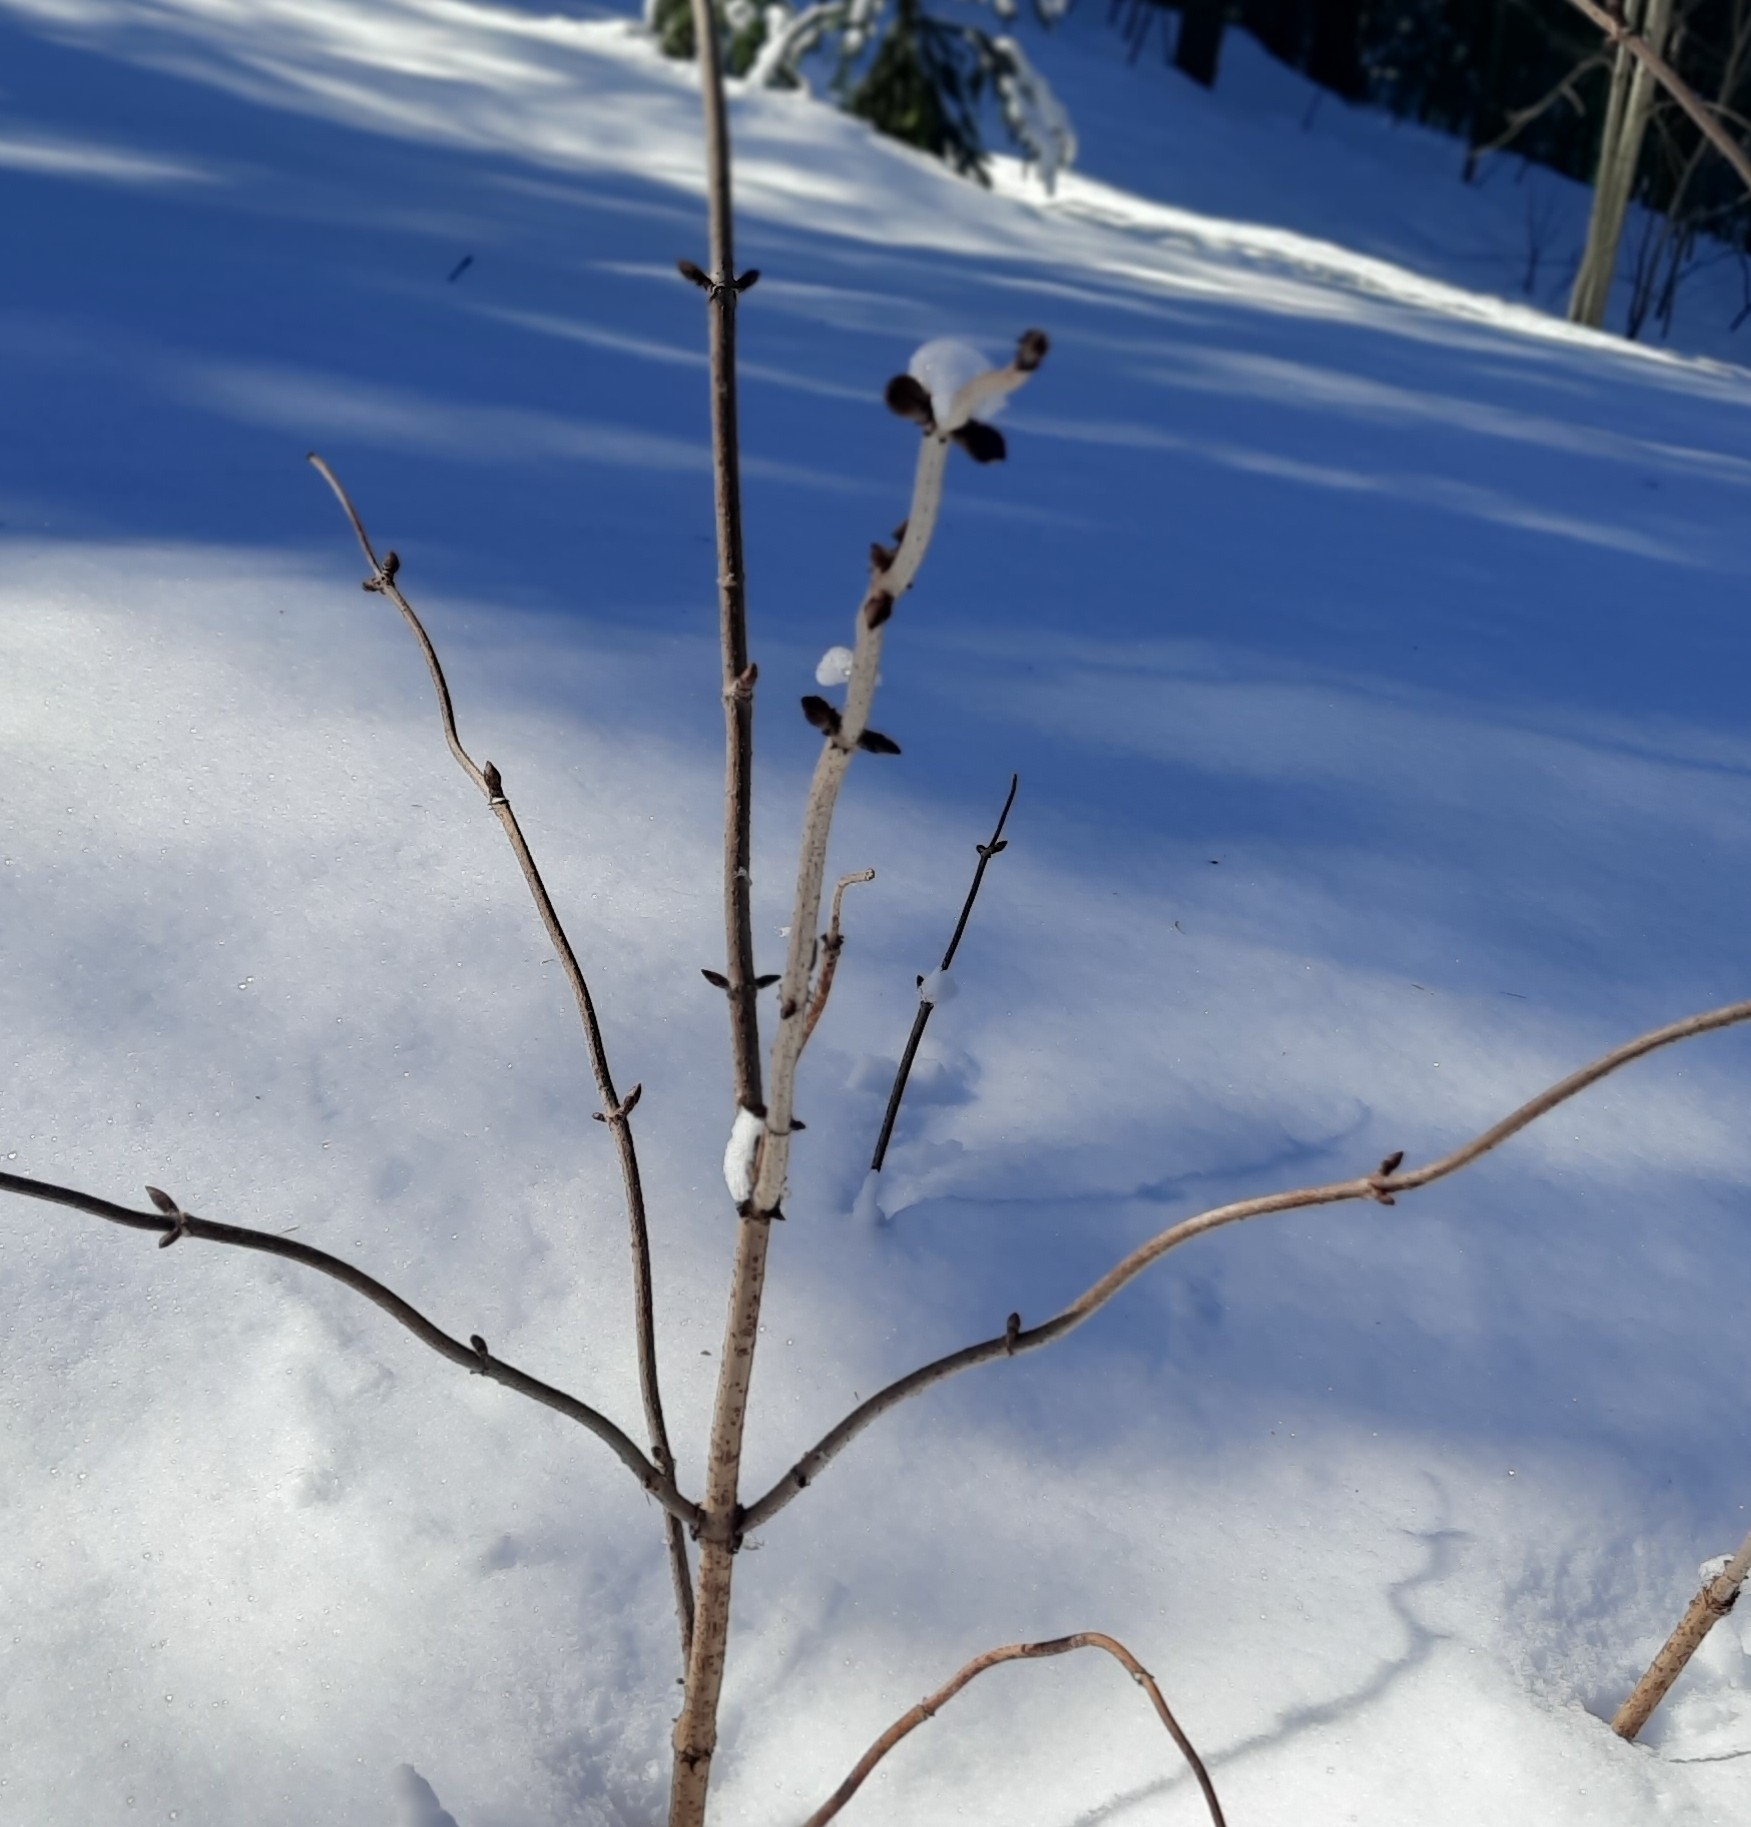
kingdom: Plantae
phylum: Tracheophyta
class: Magnoliopsida
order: Dipsacales
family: Viburnaceae
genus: Sambucus
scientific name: Sambucus sibirica
